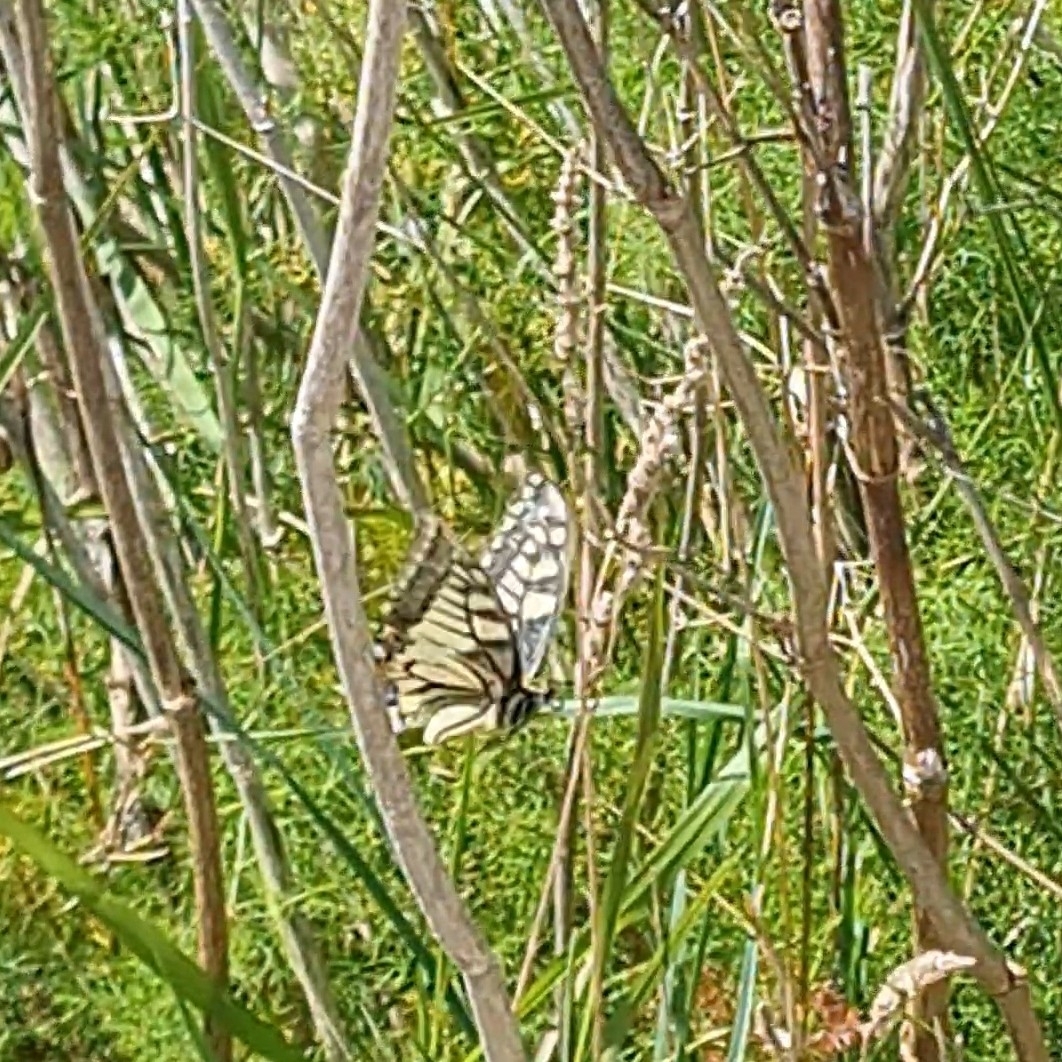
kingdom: Animalia
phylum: Arthropoda
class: Insecta
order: Lepidoptera
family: Papilionidae
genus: Papilio
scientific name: Papilio machaon
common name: Swallowtail
